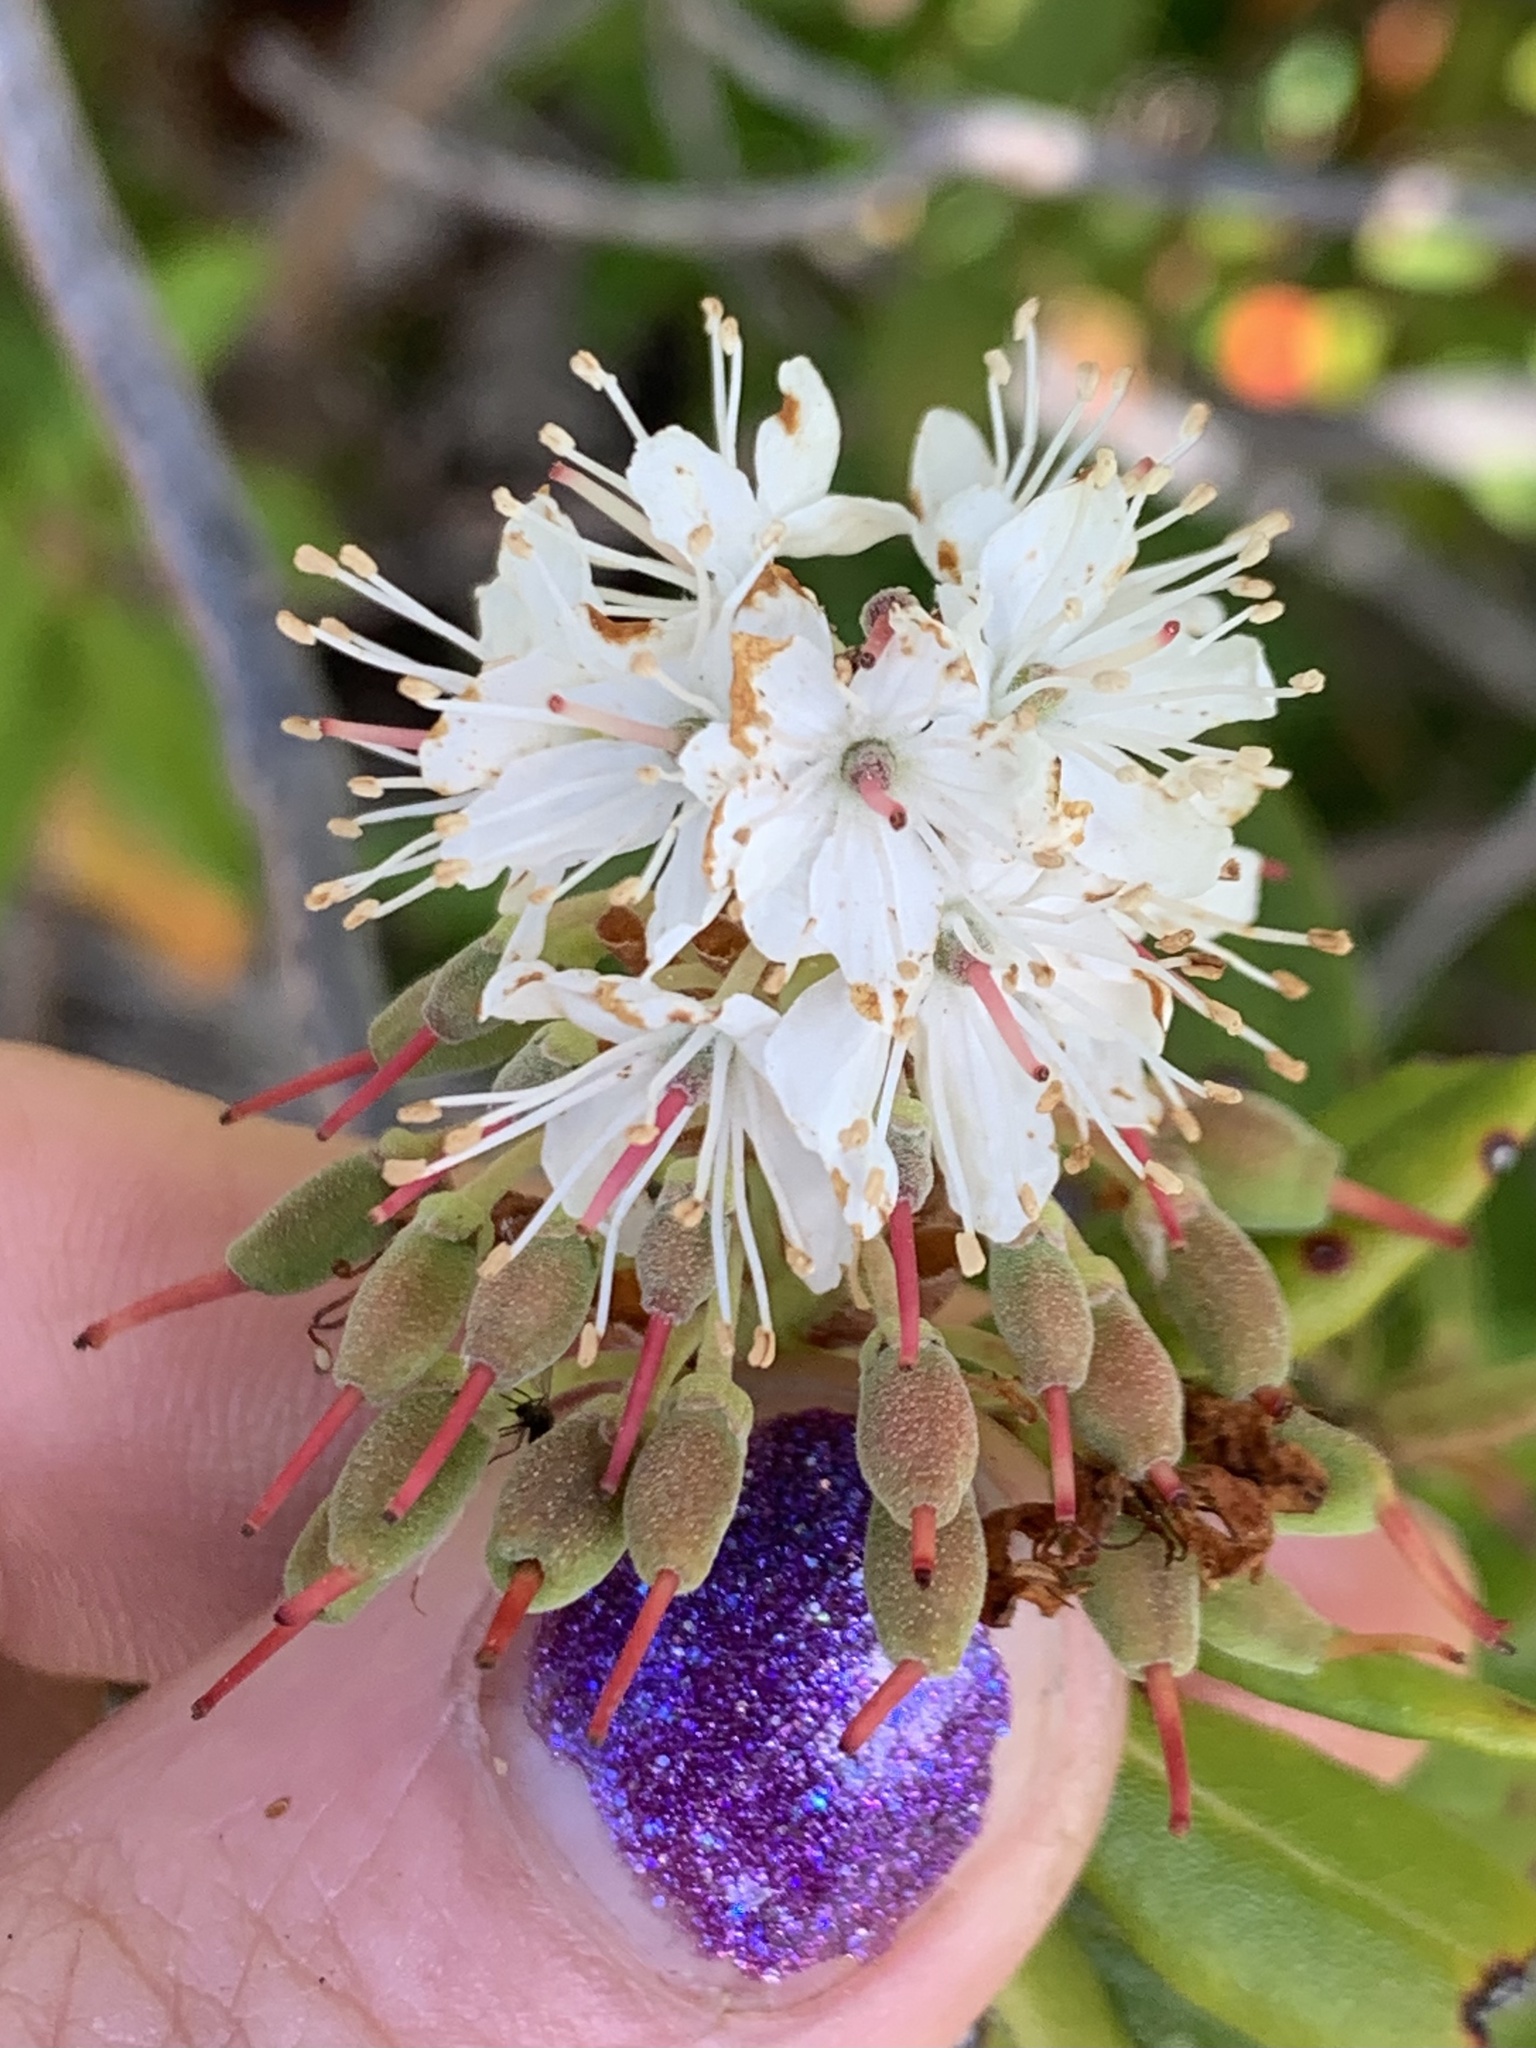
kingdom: Plantae
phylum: Tracheophyta
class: Magnoliopsida
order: Ericales
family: Ericaceae
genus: Rhododendron
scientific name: Rhododendron columbianum
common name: Western labrador tea
